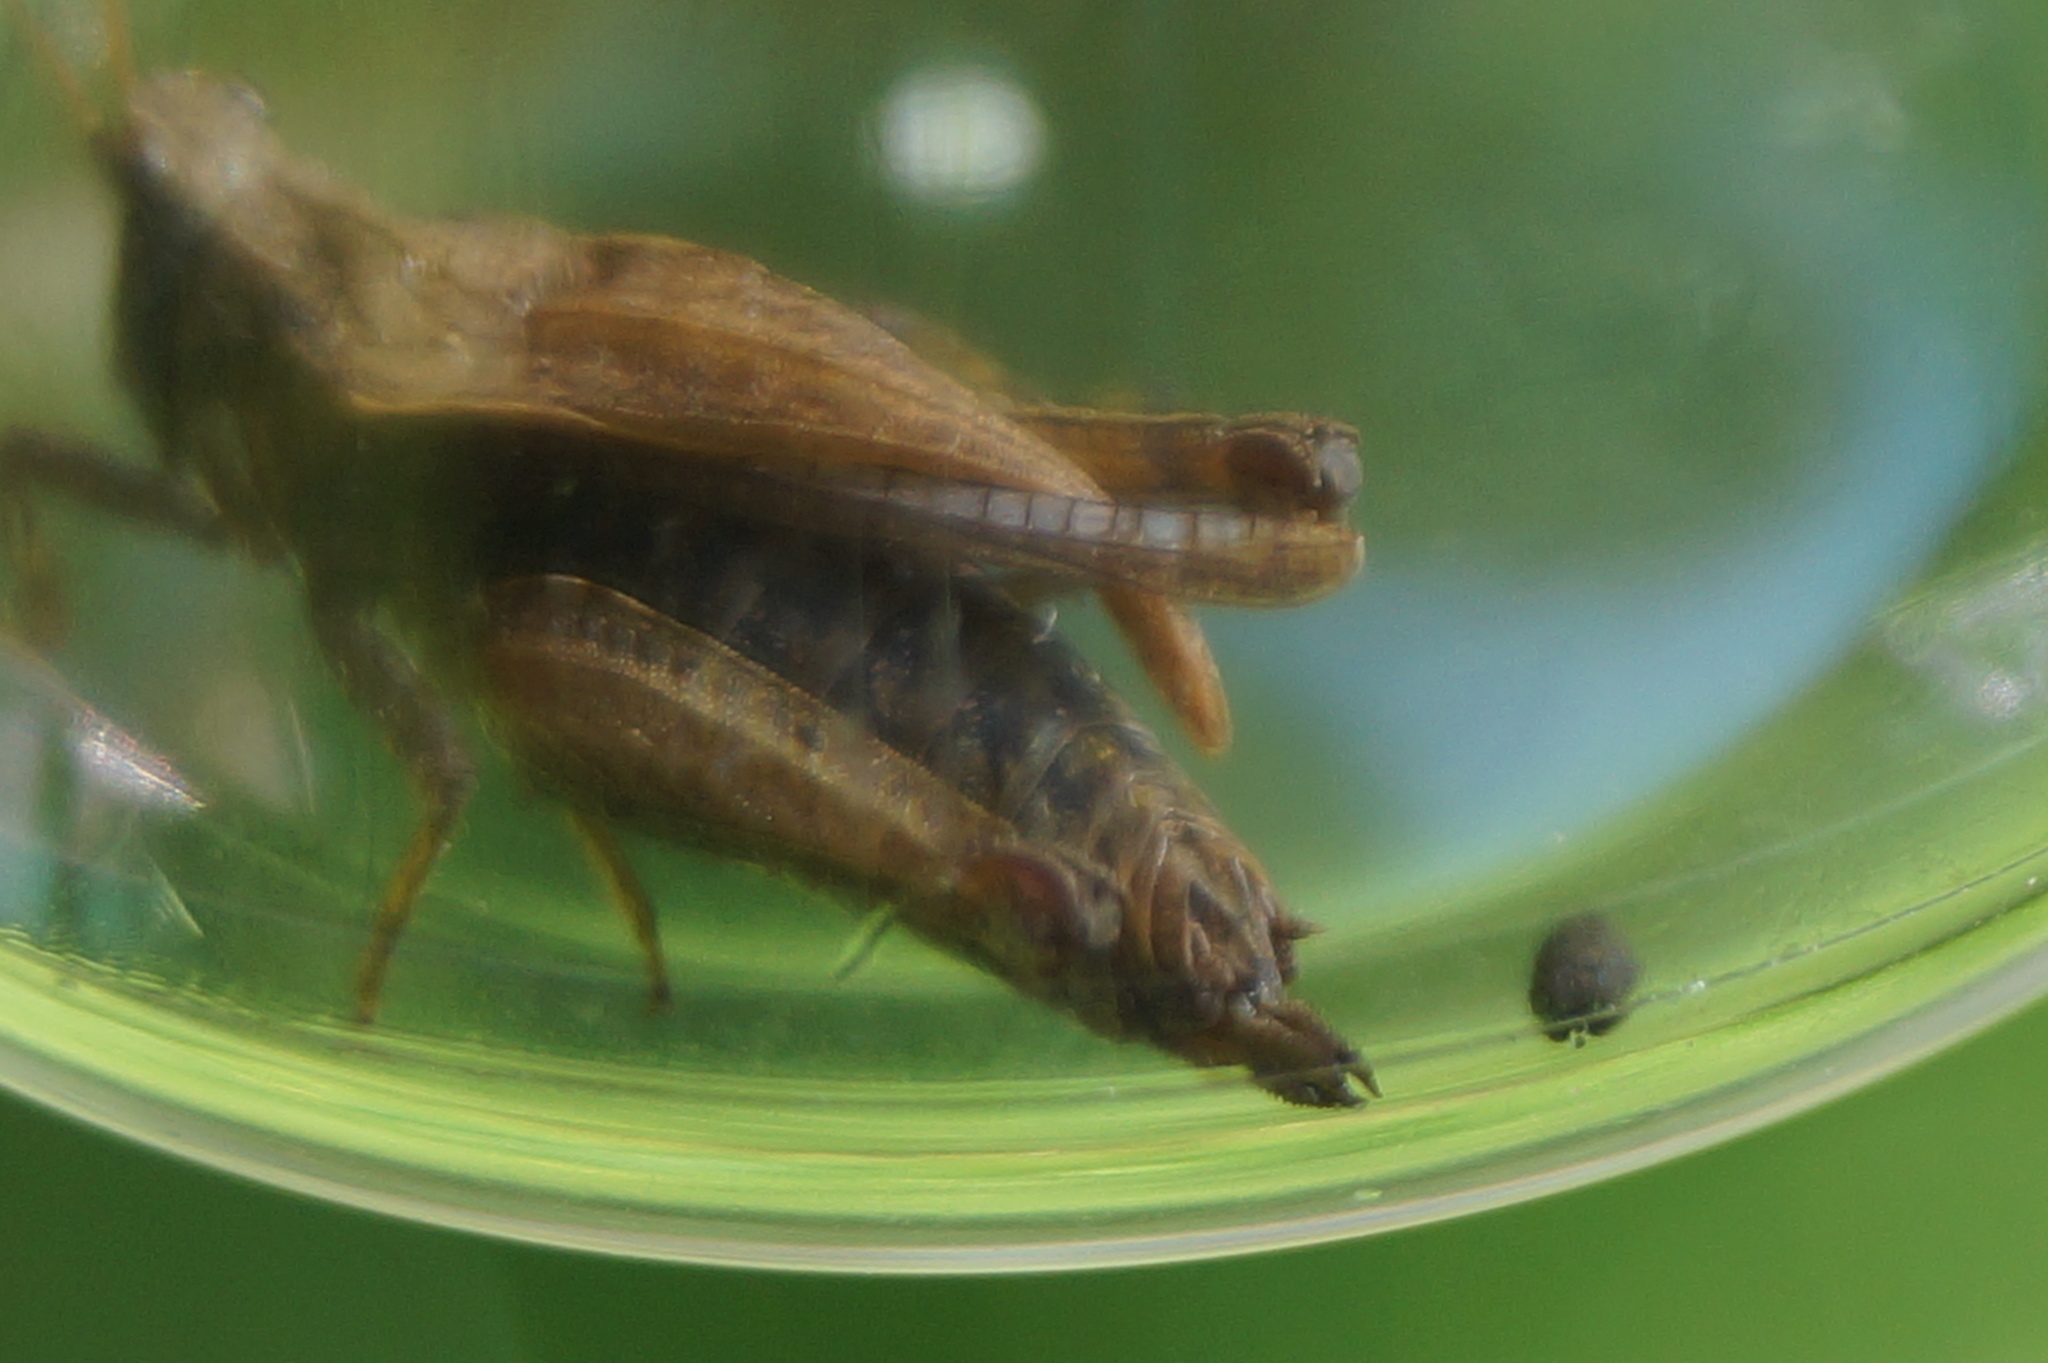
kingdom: Animalia
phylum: Arthropoda
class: Insecta
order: Orthoptera
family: Tetrigidae
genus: Tetrix
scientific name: Tetrix subulata
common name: Slender ground-hopper
